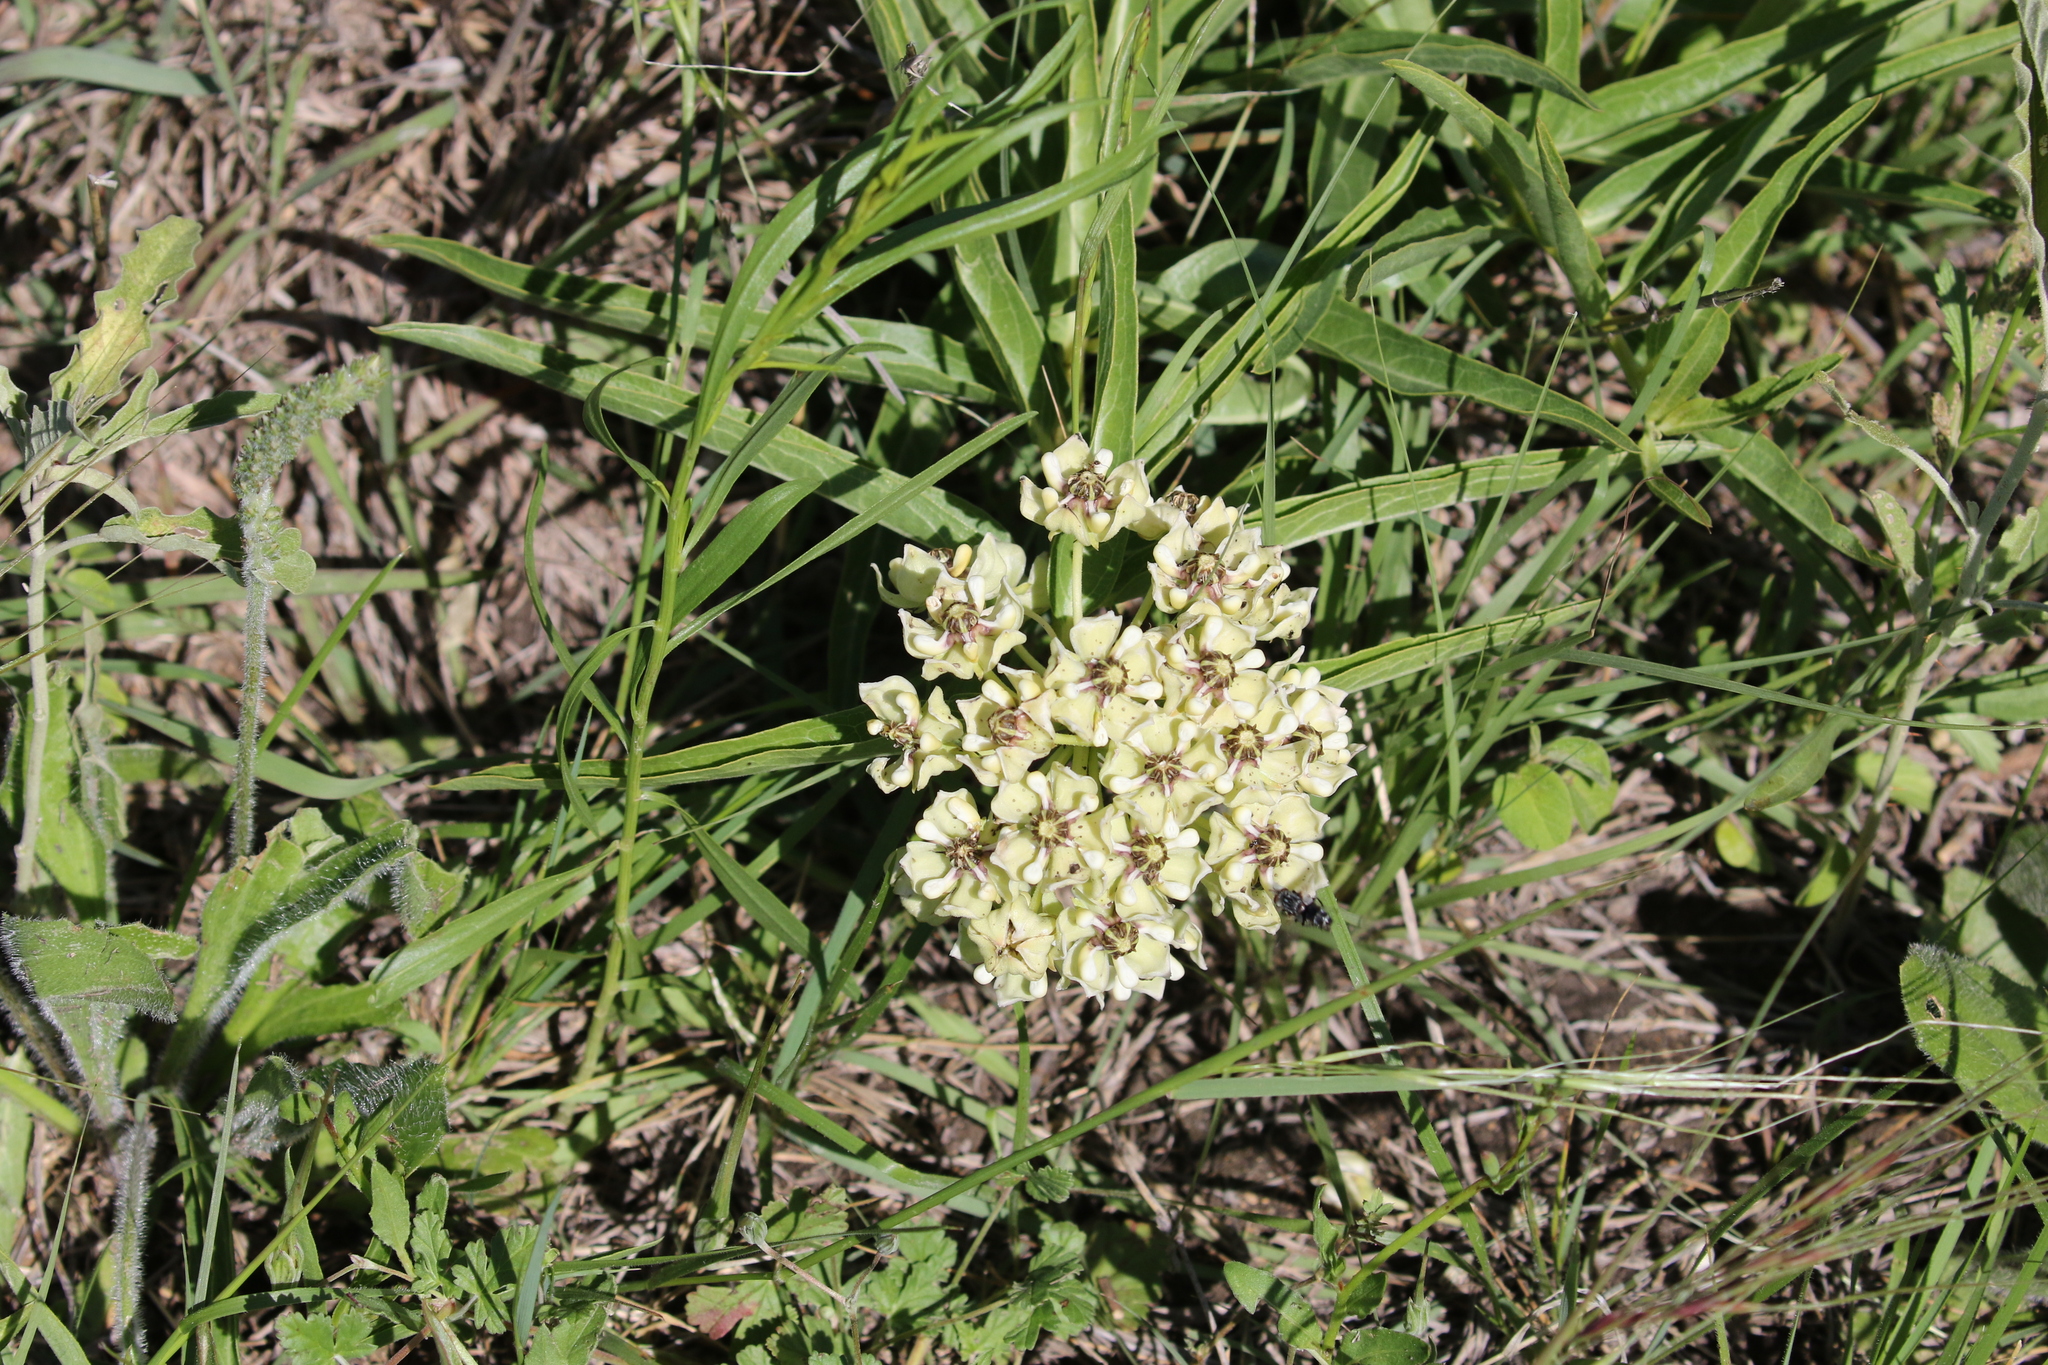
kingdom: Plantae
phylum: Tracheophyta
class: Magnoliopsida
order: Gentianales
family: Apocynaceae
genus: Asclepias
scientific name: Asclepias asperula
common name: Antelope horns
